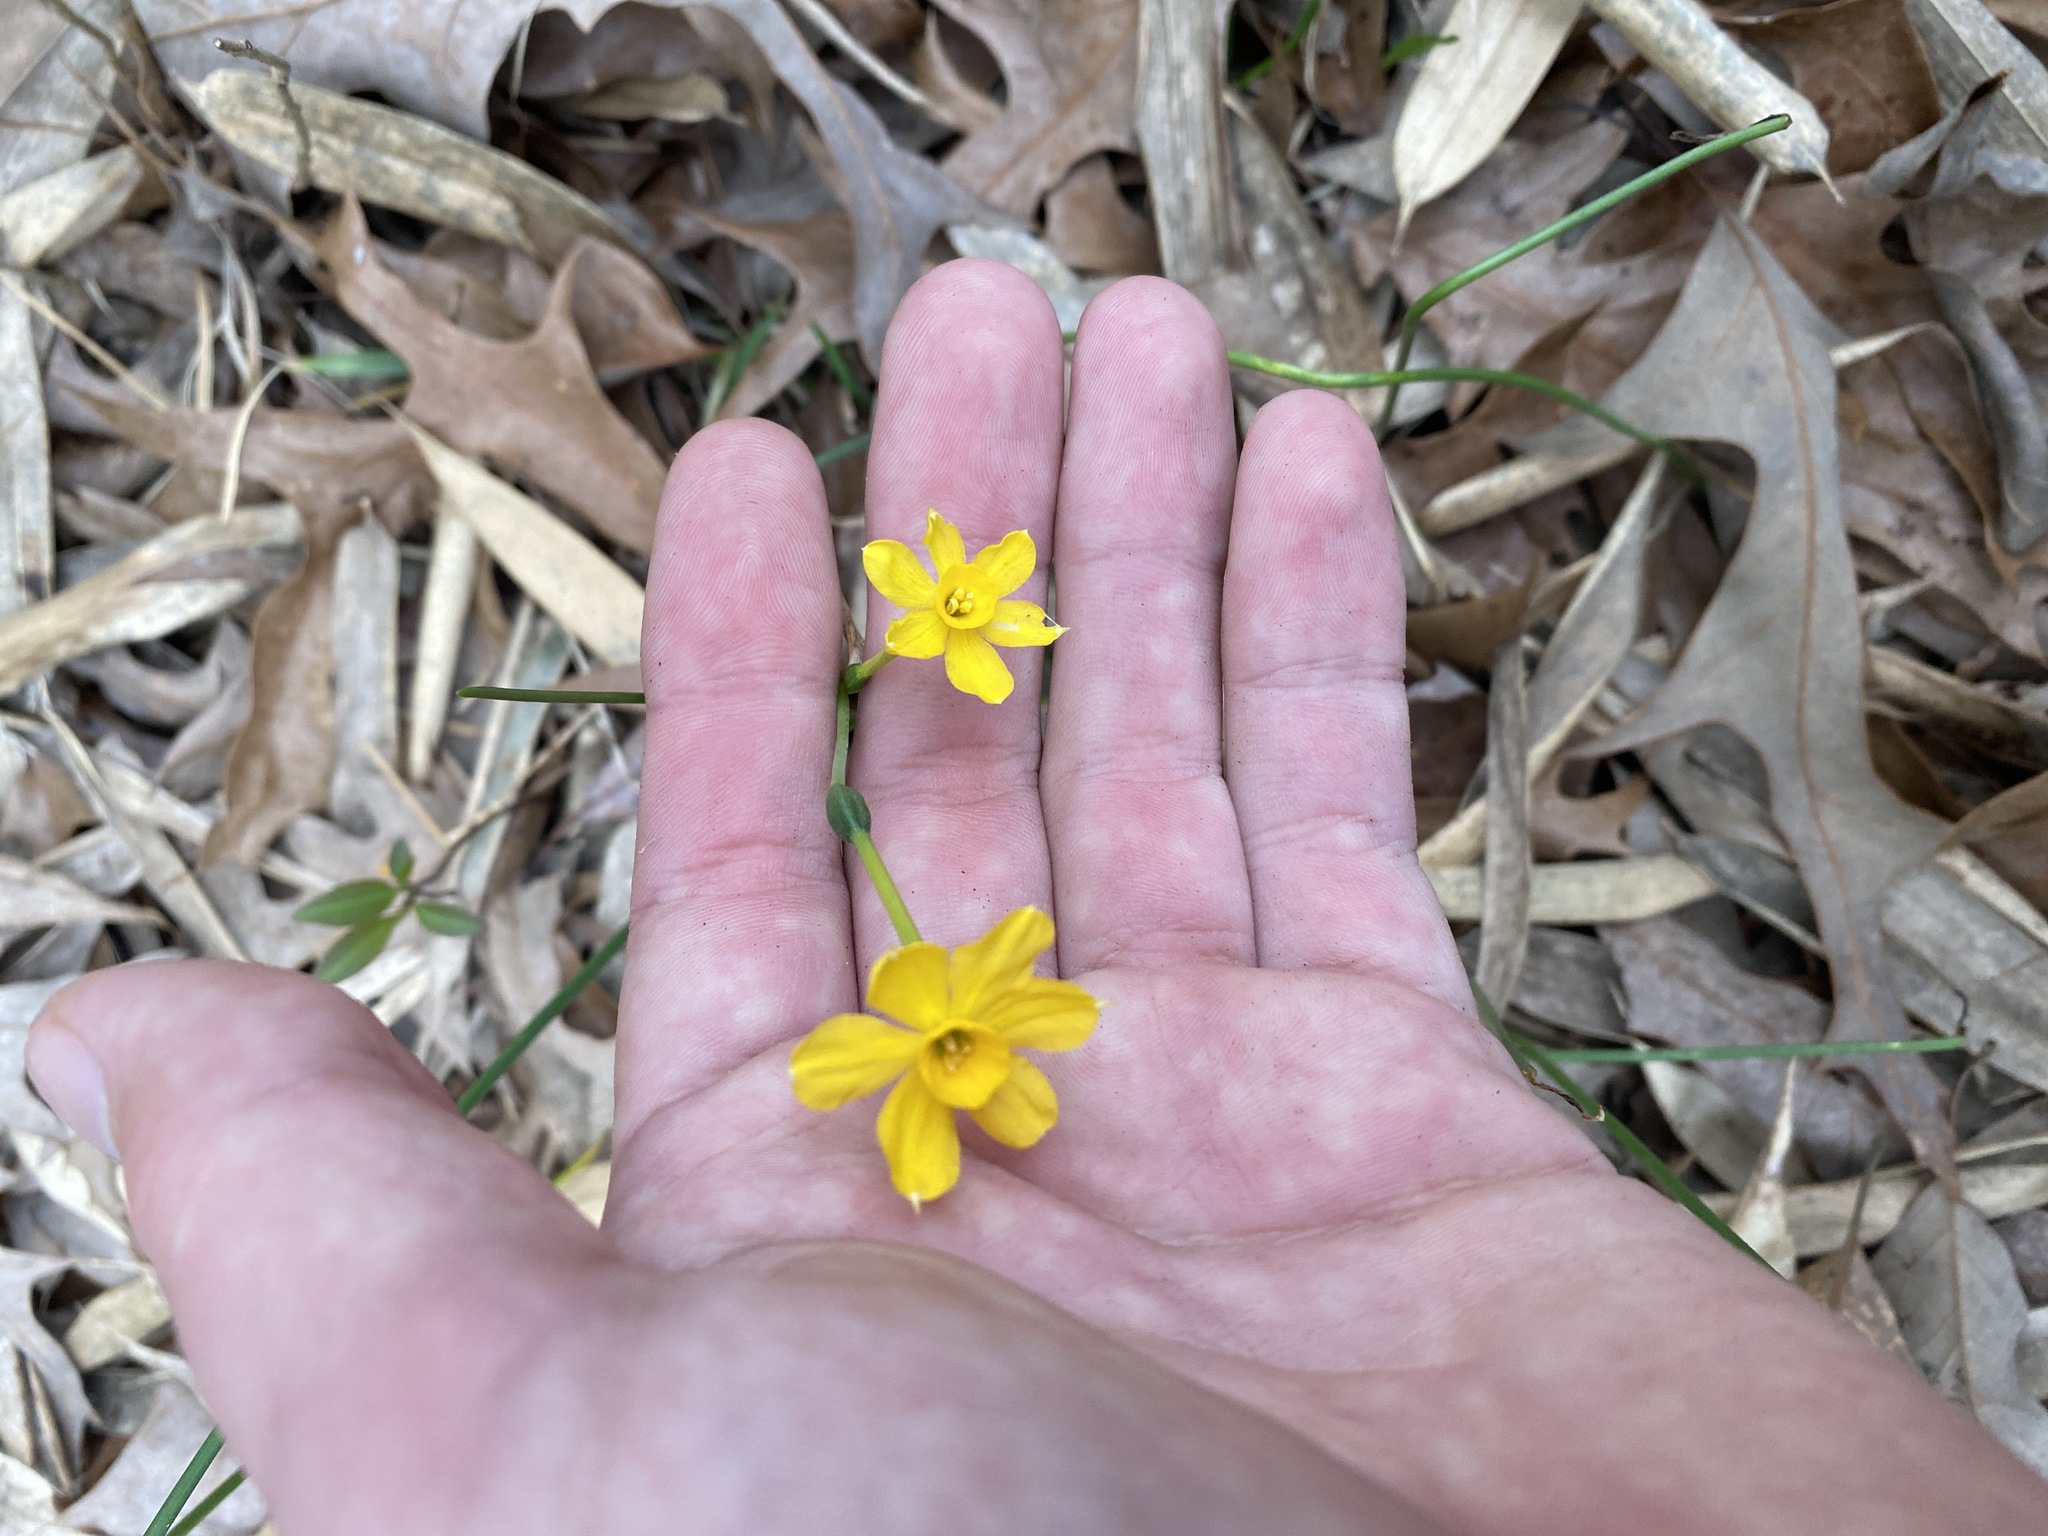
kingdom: Plantae
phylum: Tracheophyta
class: Liliopsida
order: Asparagales
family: Amaryllidaceae
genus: Narcissus
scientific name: Narcissus jonquilla
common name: Jonquil
